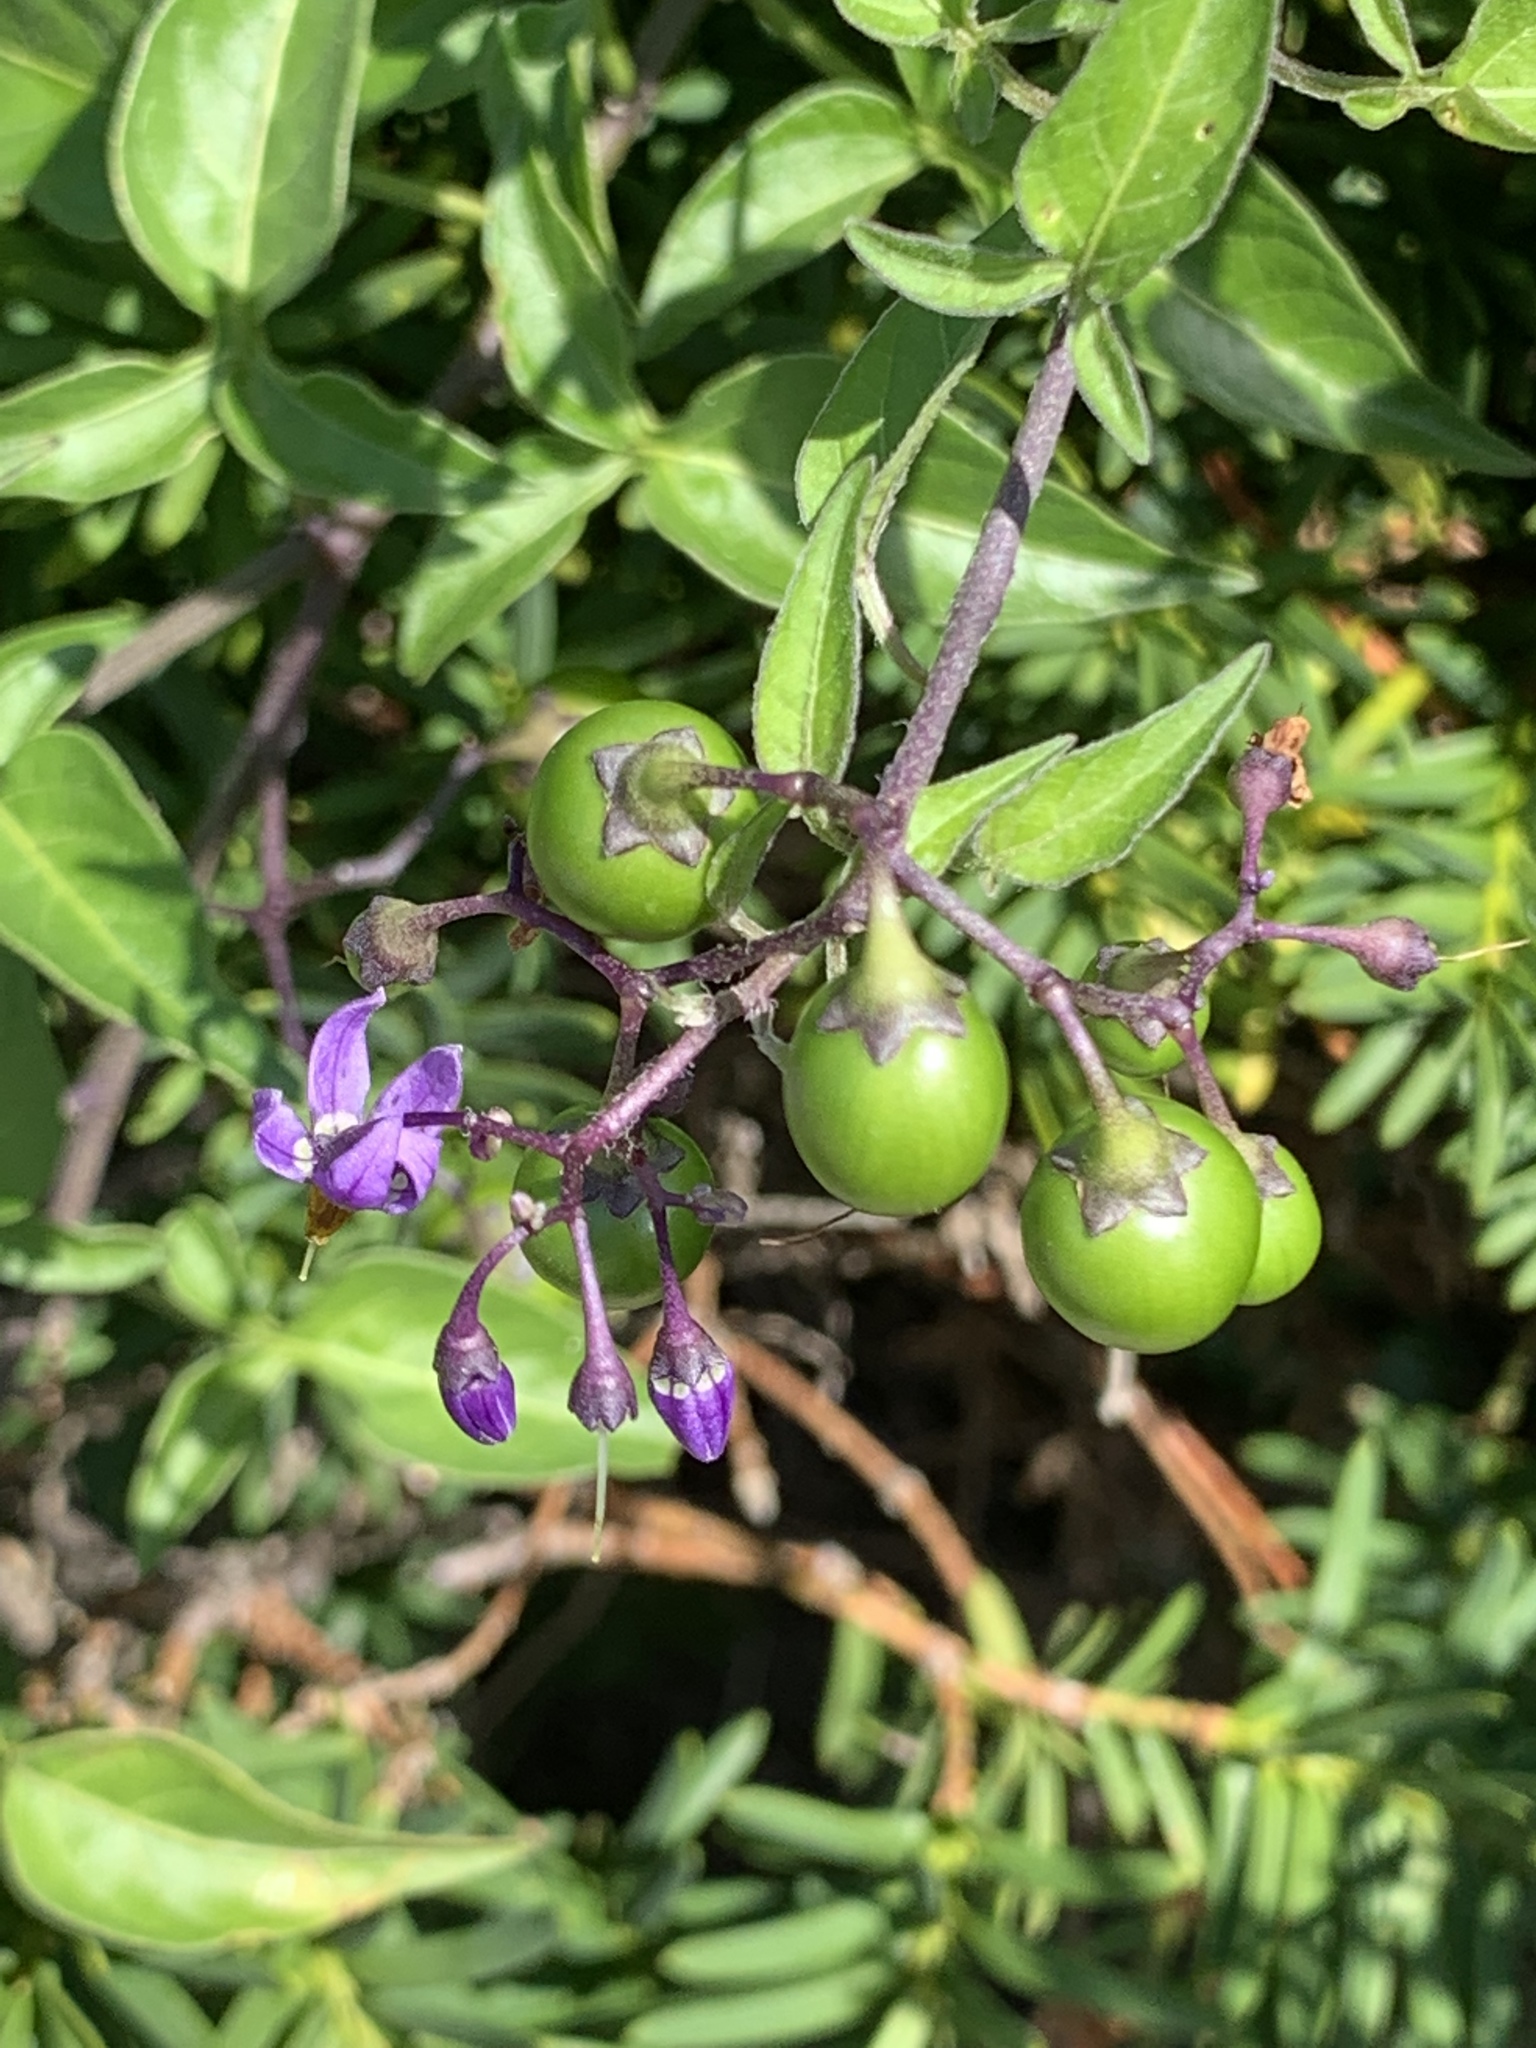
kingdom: Plantae
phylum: Tracheophyta
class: Magnoliopsida
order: Solanales
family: Solanaceae
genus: Solanum
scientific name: Solanum dulcamara
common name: Climbing nightshade
